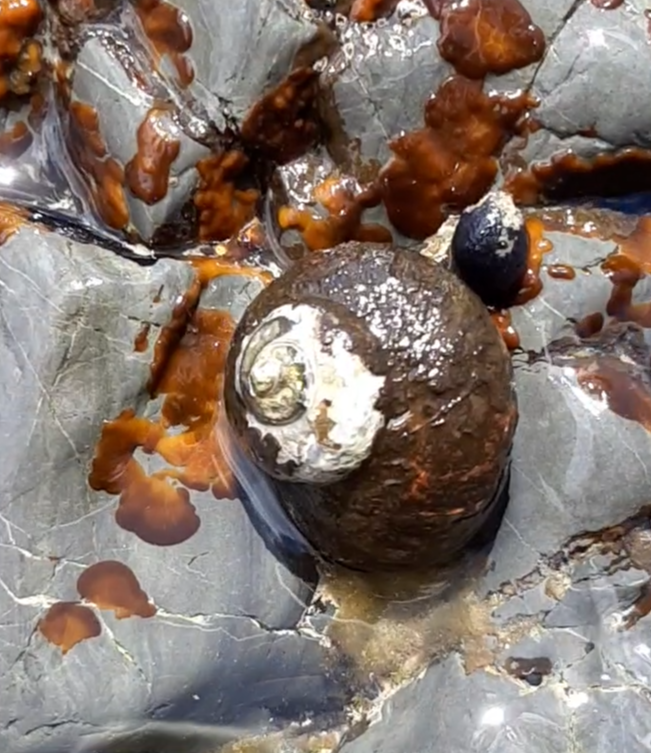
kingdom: Animalia
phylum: Mollusca
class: Gastropoda
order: Trochida
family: Turbinidae
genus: Lunella
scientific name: Lunella smaragda
